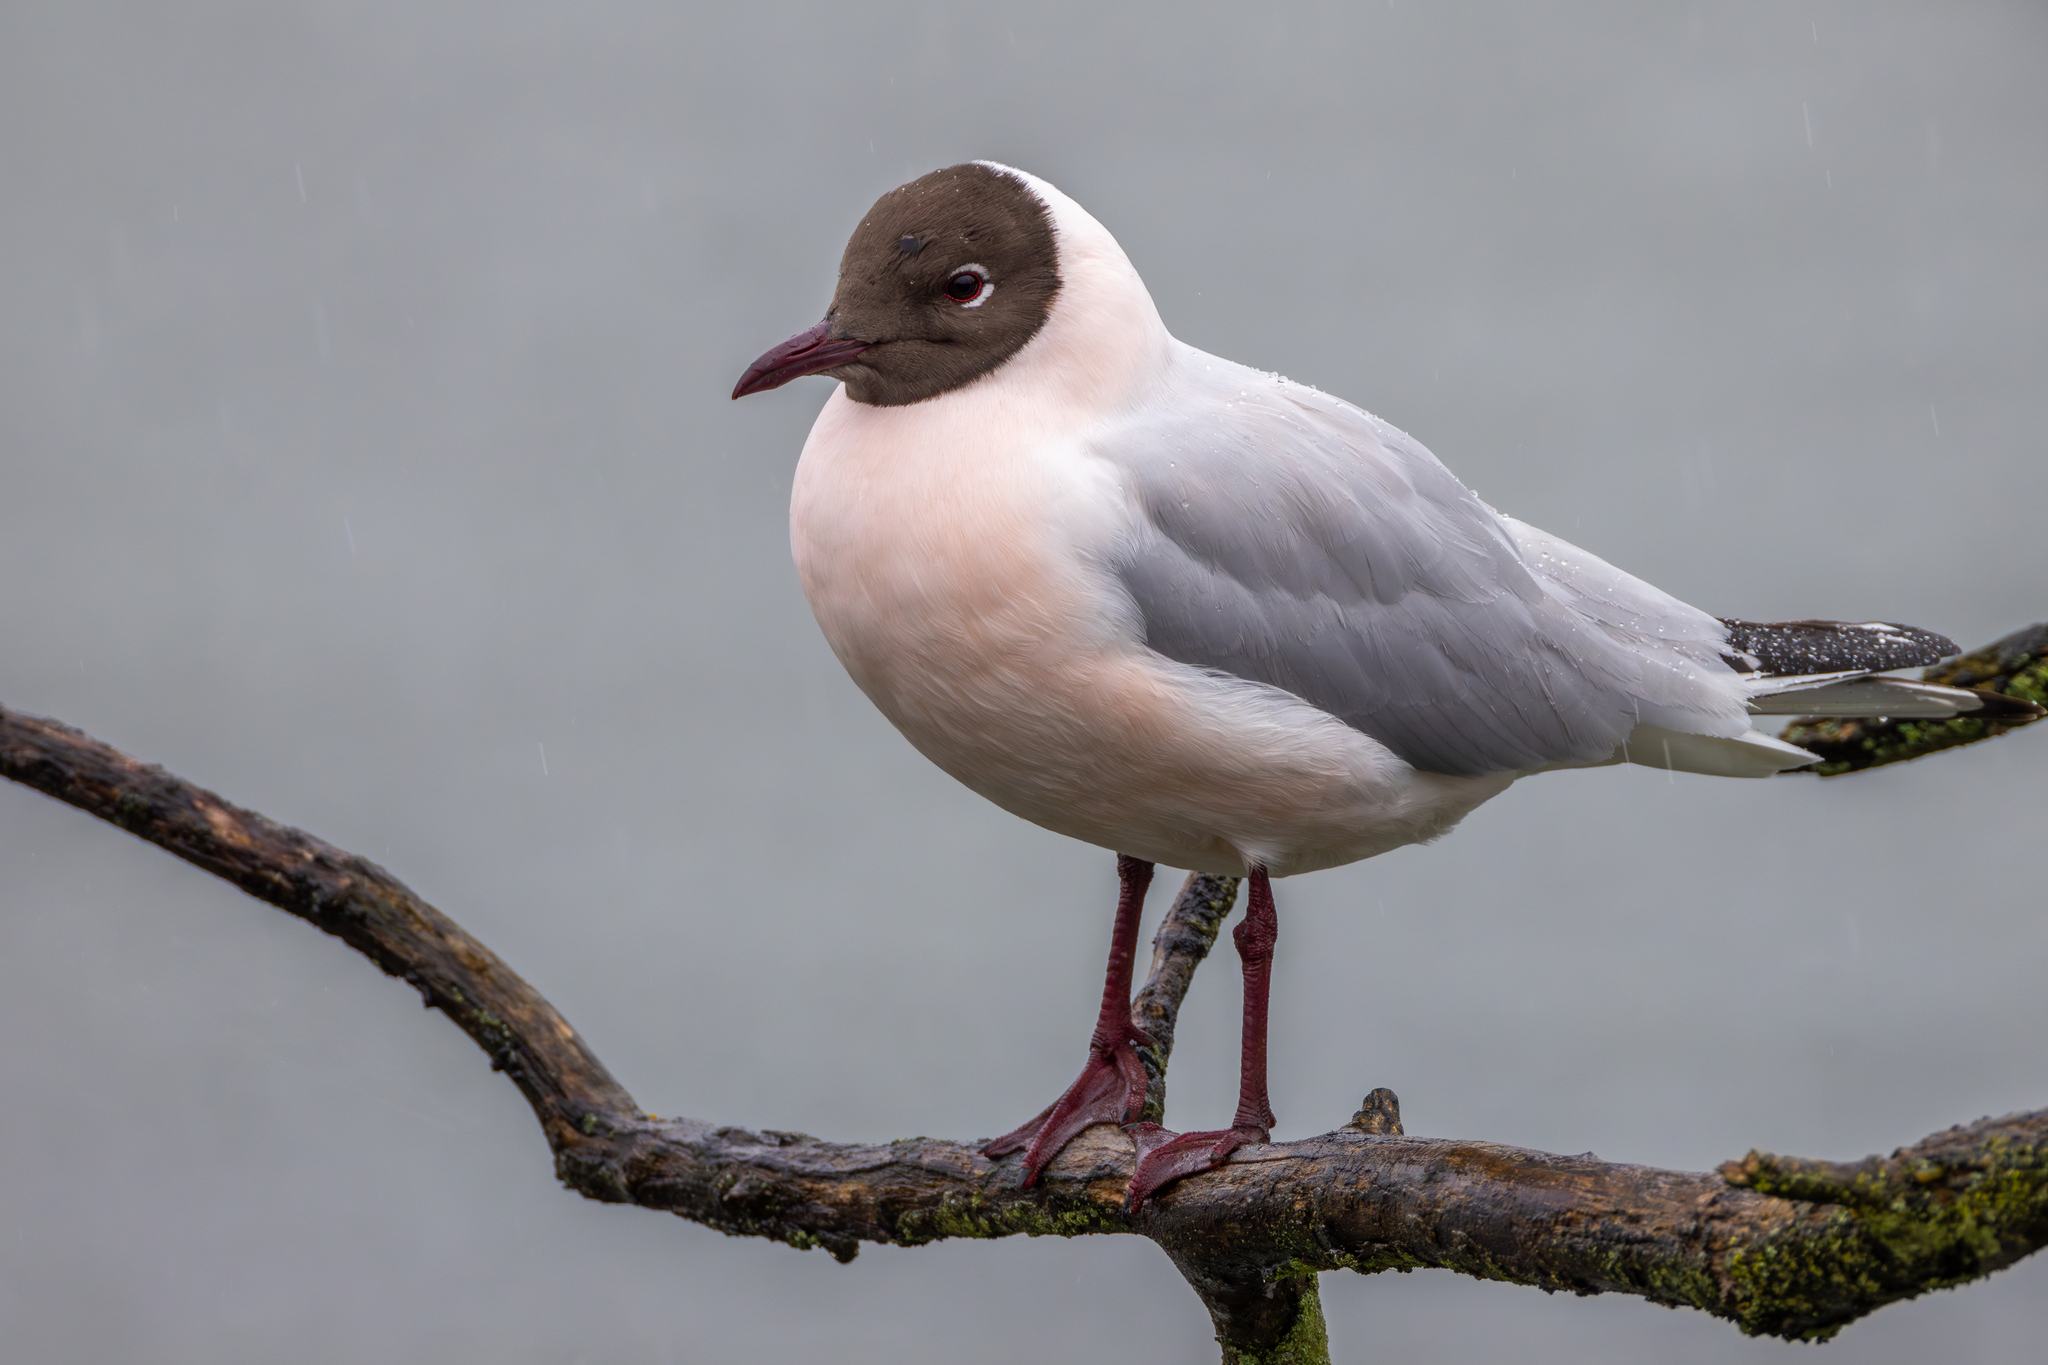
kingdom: Animalia
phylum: Chordata
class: Aves
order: Charadriiformes
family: Laridae
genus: Chroicocephalus
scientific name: Chroicocephalus ridibundus
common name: Black-headed gull
